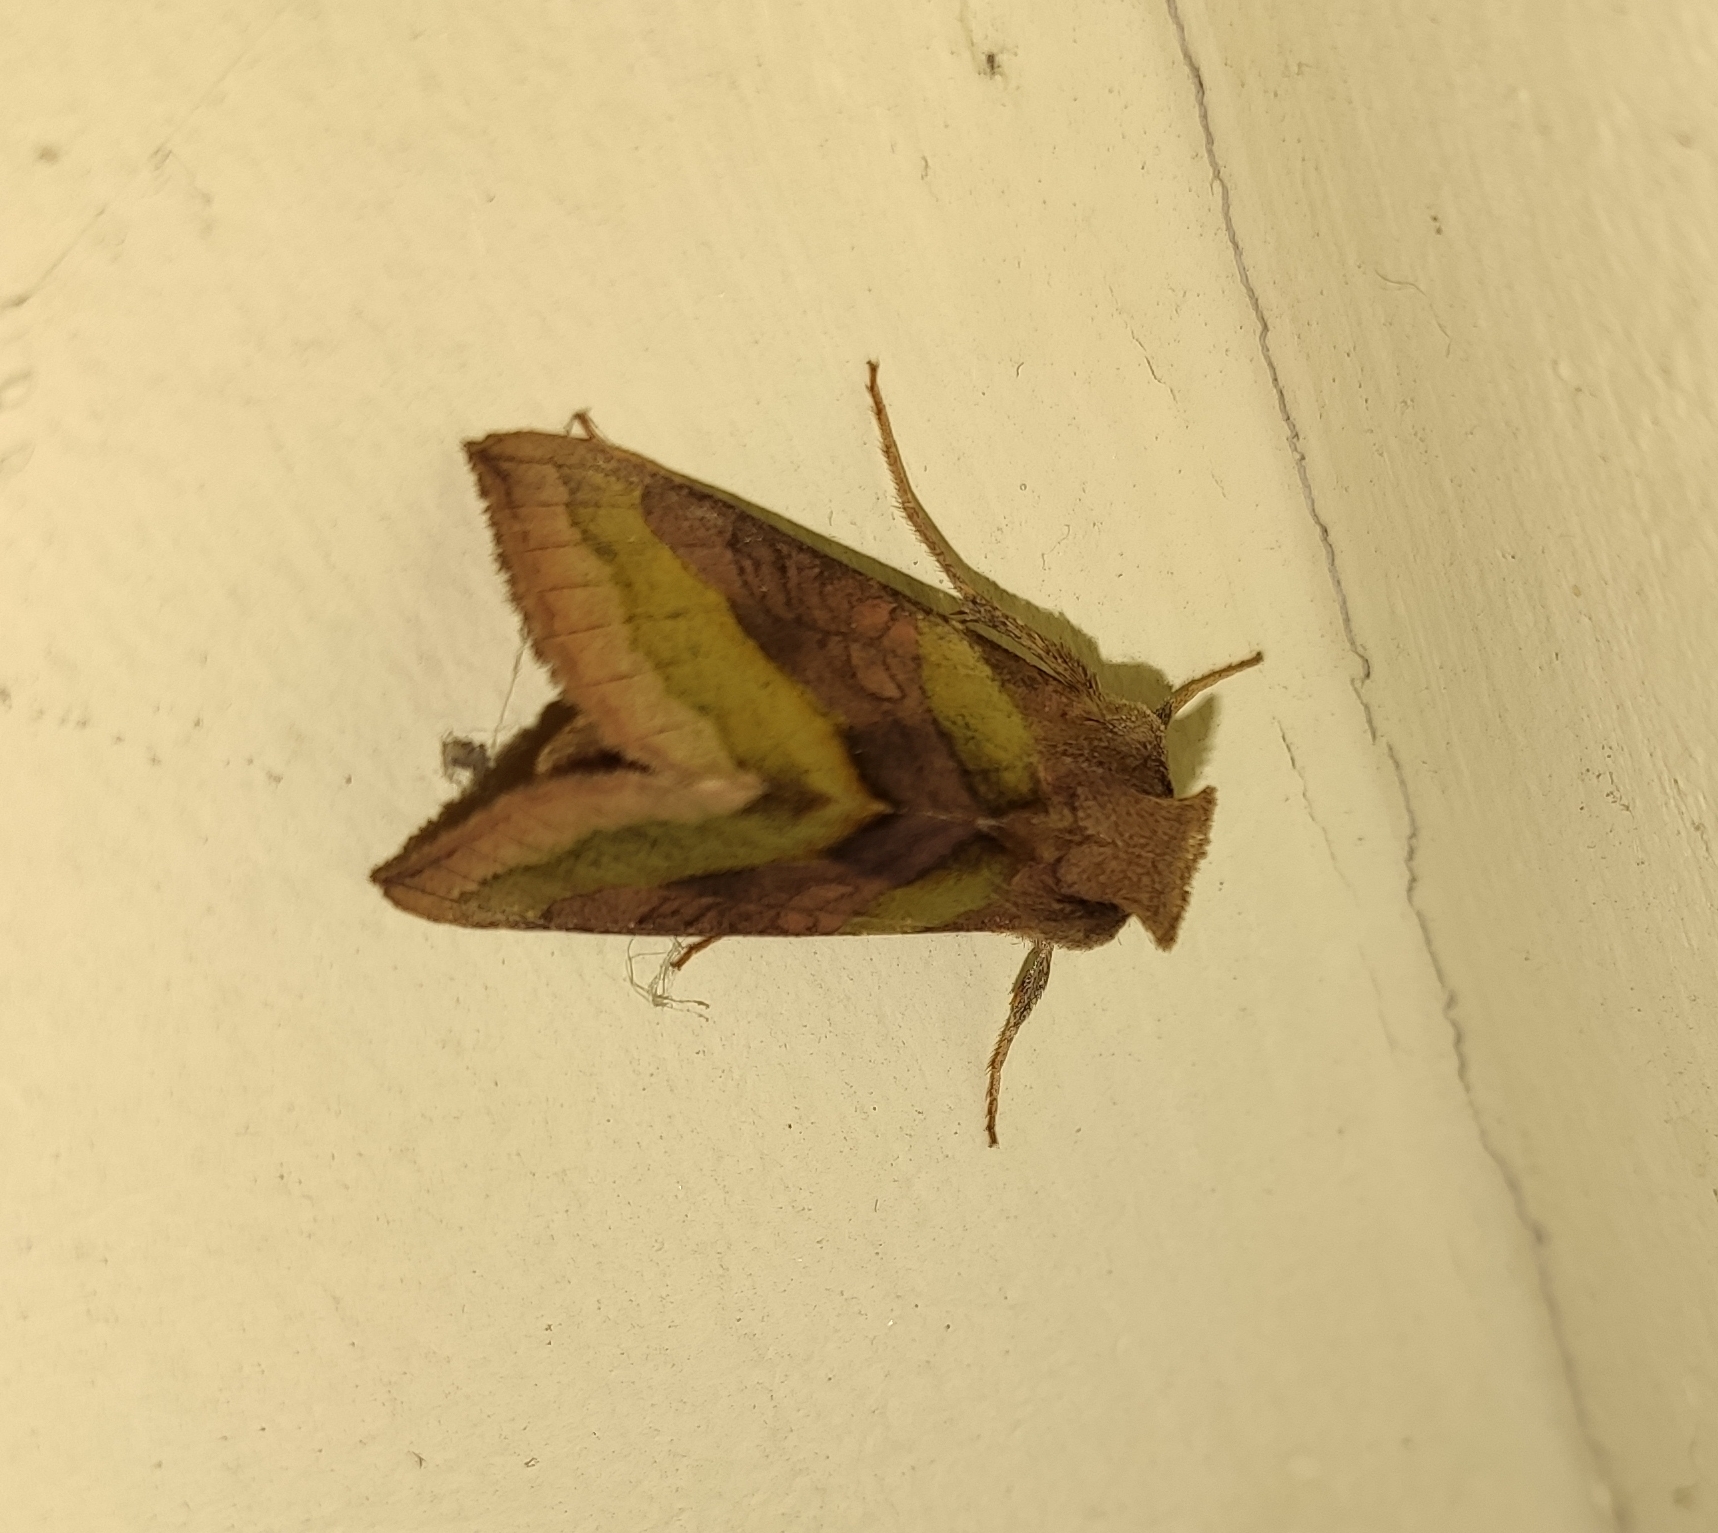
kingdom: Animalia
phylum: Arthropoda
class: Insecta
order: Lepidoptera
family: Noctuidae
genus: Diachrysia
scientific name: Diachrysia chrysitis
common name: Burnished brass
